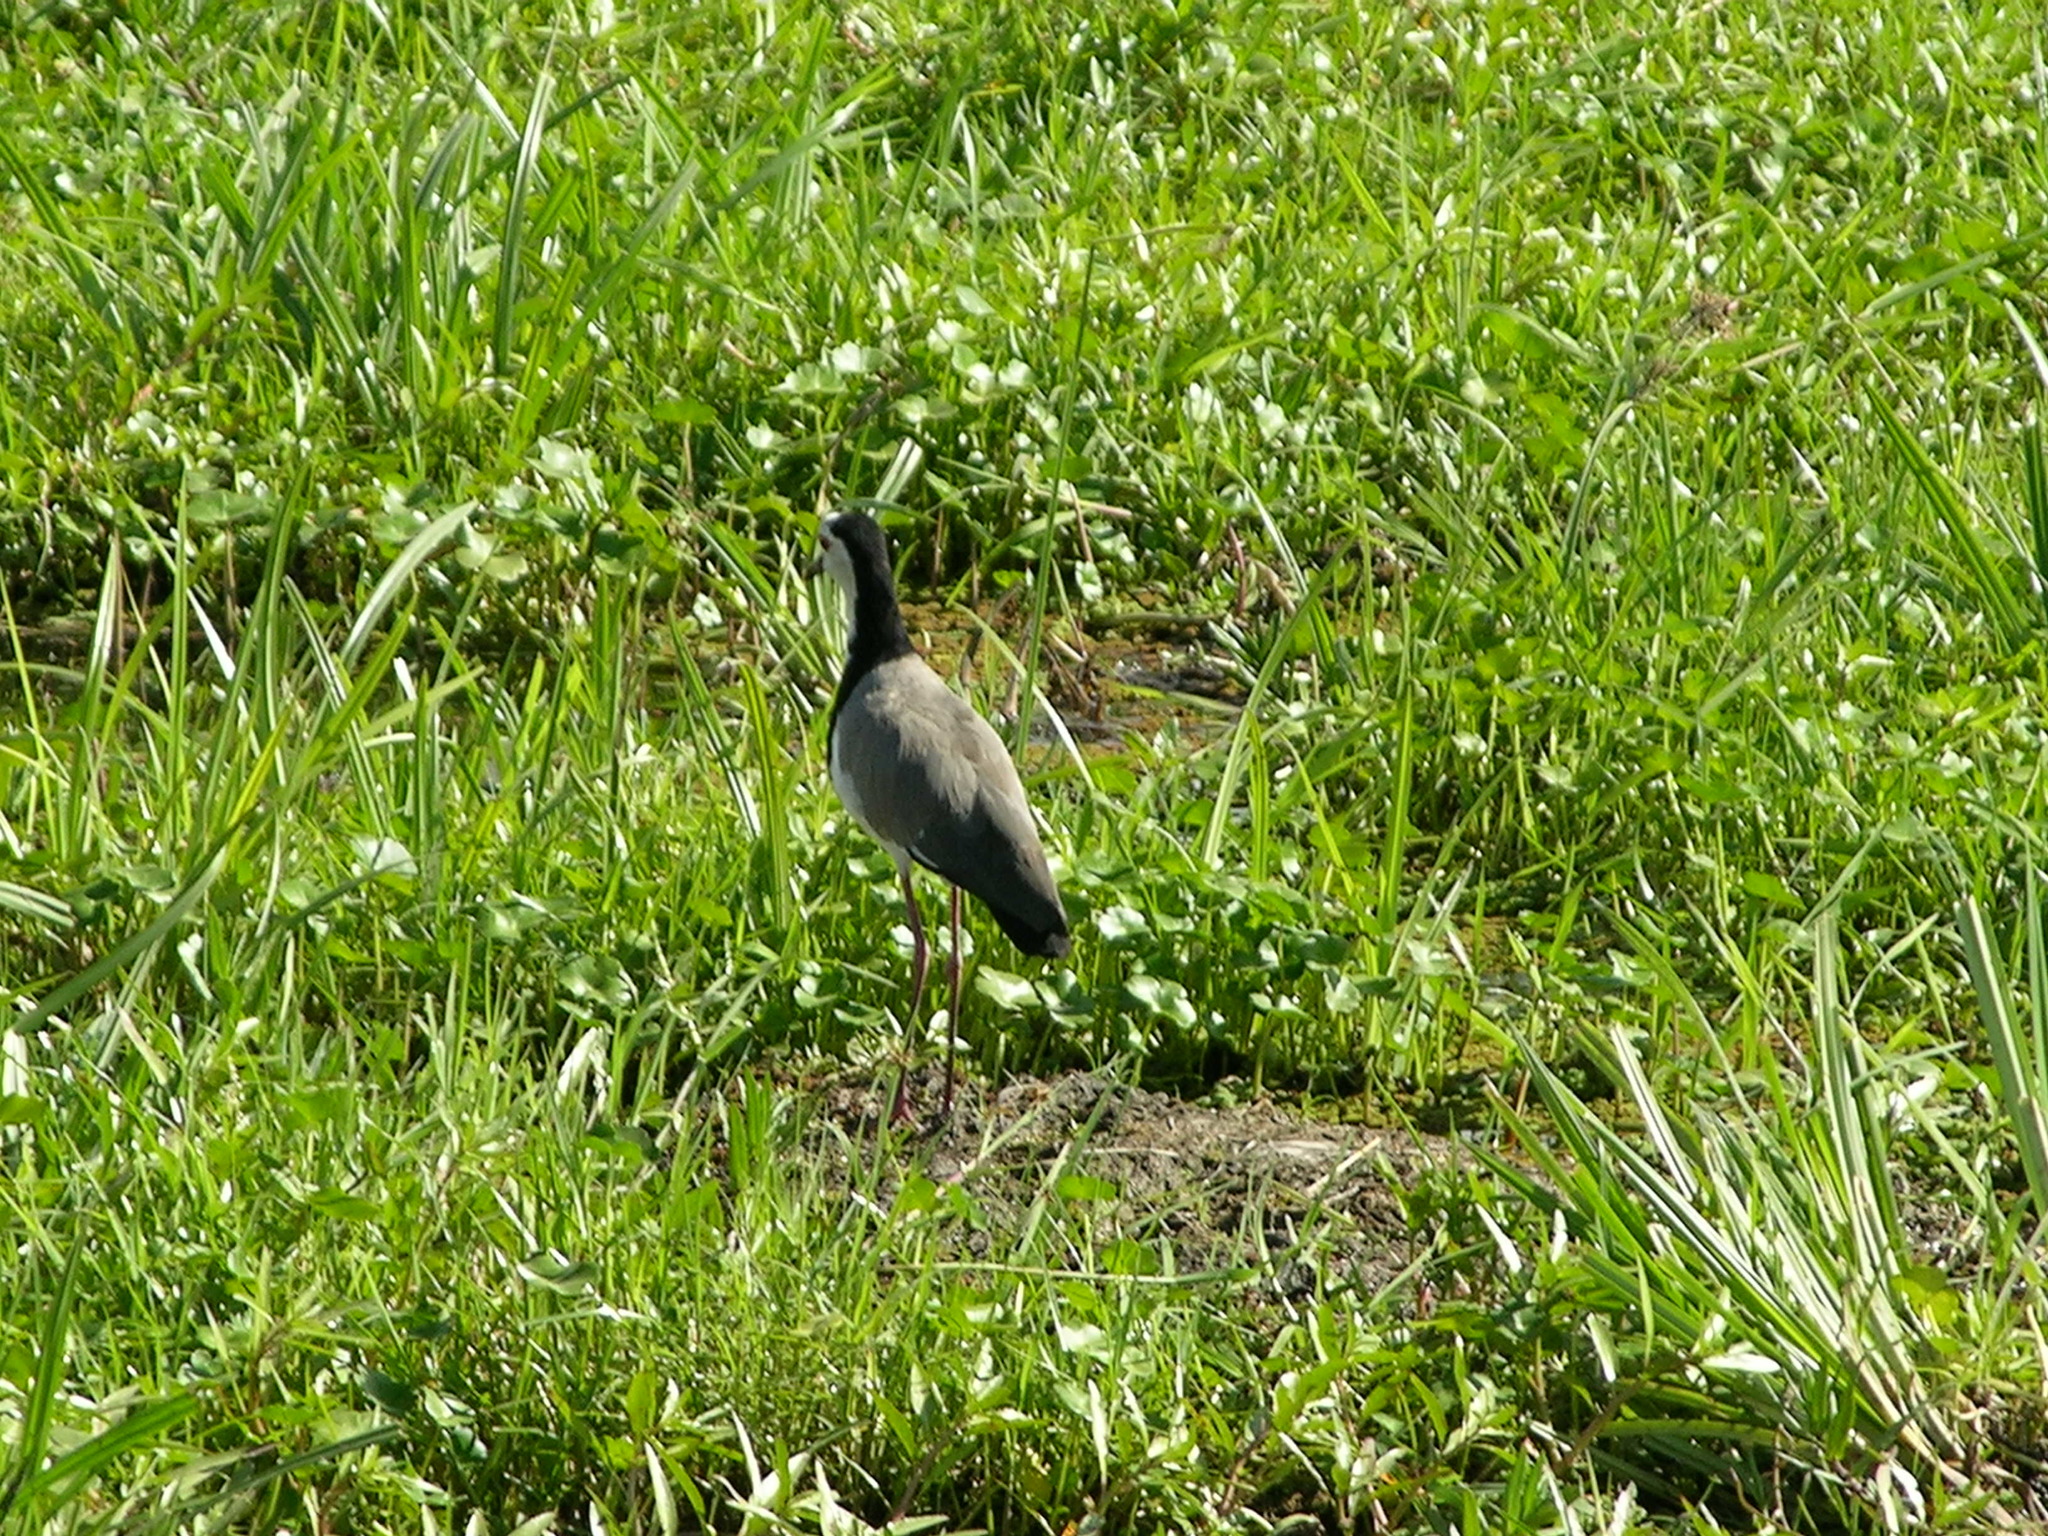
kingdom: Animalia
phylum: Chordata
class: Aves
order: Charadriiformes
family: Charadriidae
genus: Vanellus
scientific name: Vanellus crassirostris
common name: Long-toed lapwing
